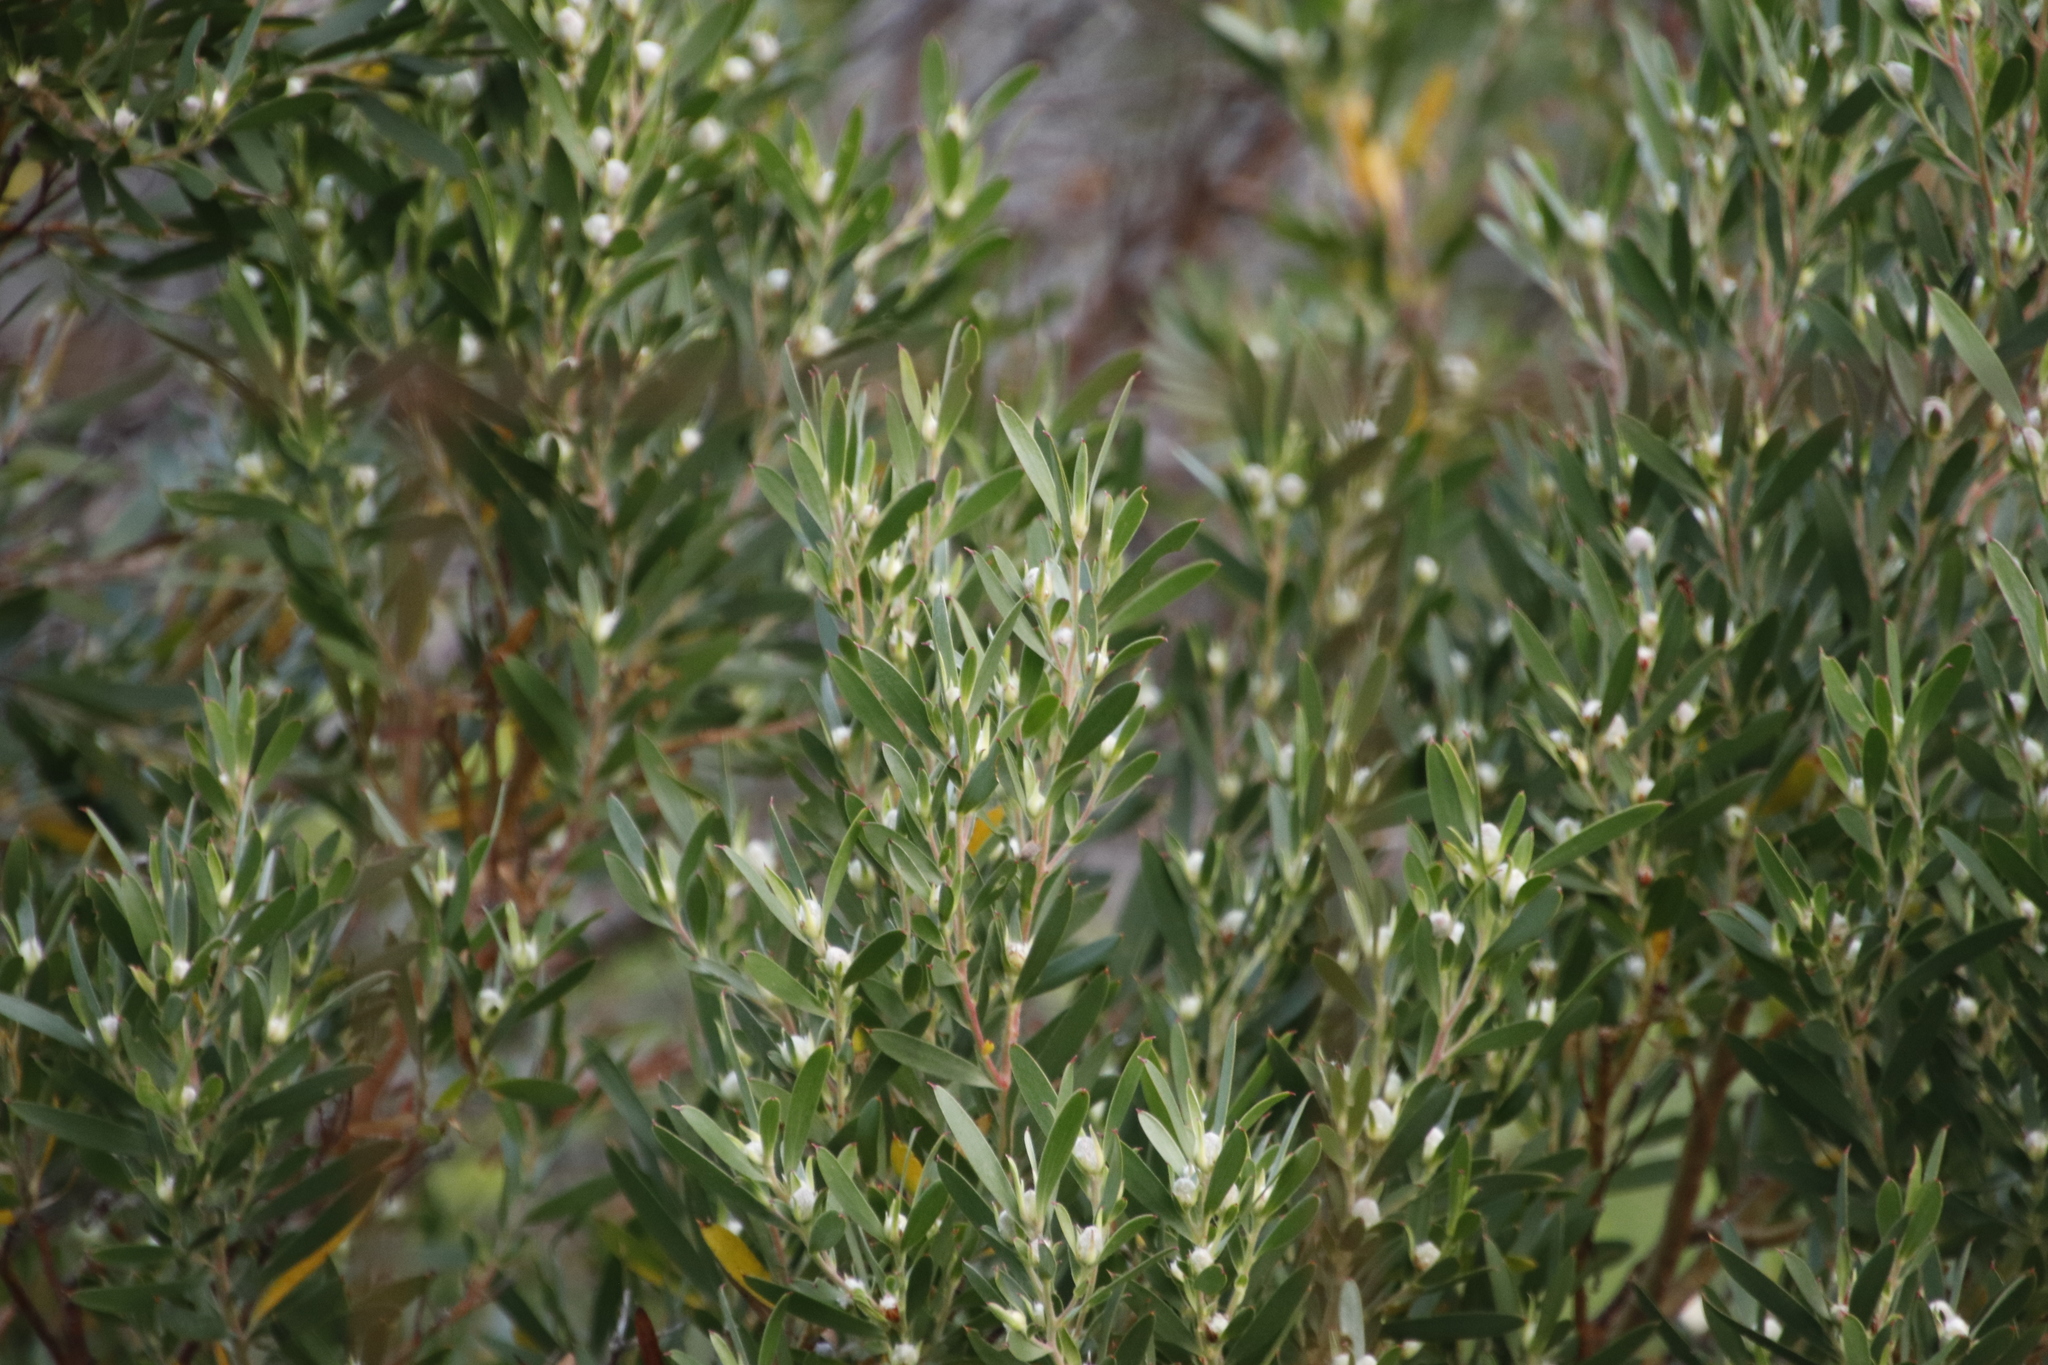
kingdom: Plantae
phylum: Tracheophyta
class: Magnoliopsida
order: Proteales
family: Proteaceae
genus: Leucadendron
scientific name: Leucadendron macowanii
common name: Acacia-leaf conebush
